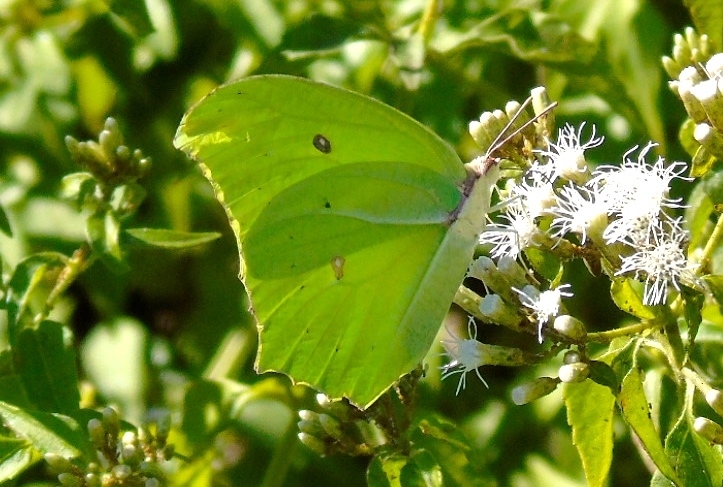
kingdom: Animalia
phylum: Arthropoda
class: Insecta
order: Lepidoptera
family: Pieridae
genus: Anteos
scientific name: Anteos maerula
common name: Angled sulphur
